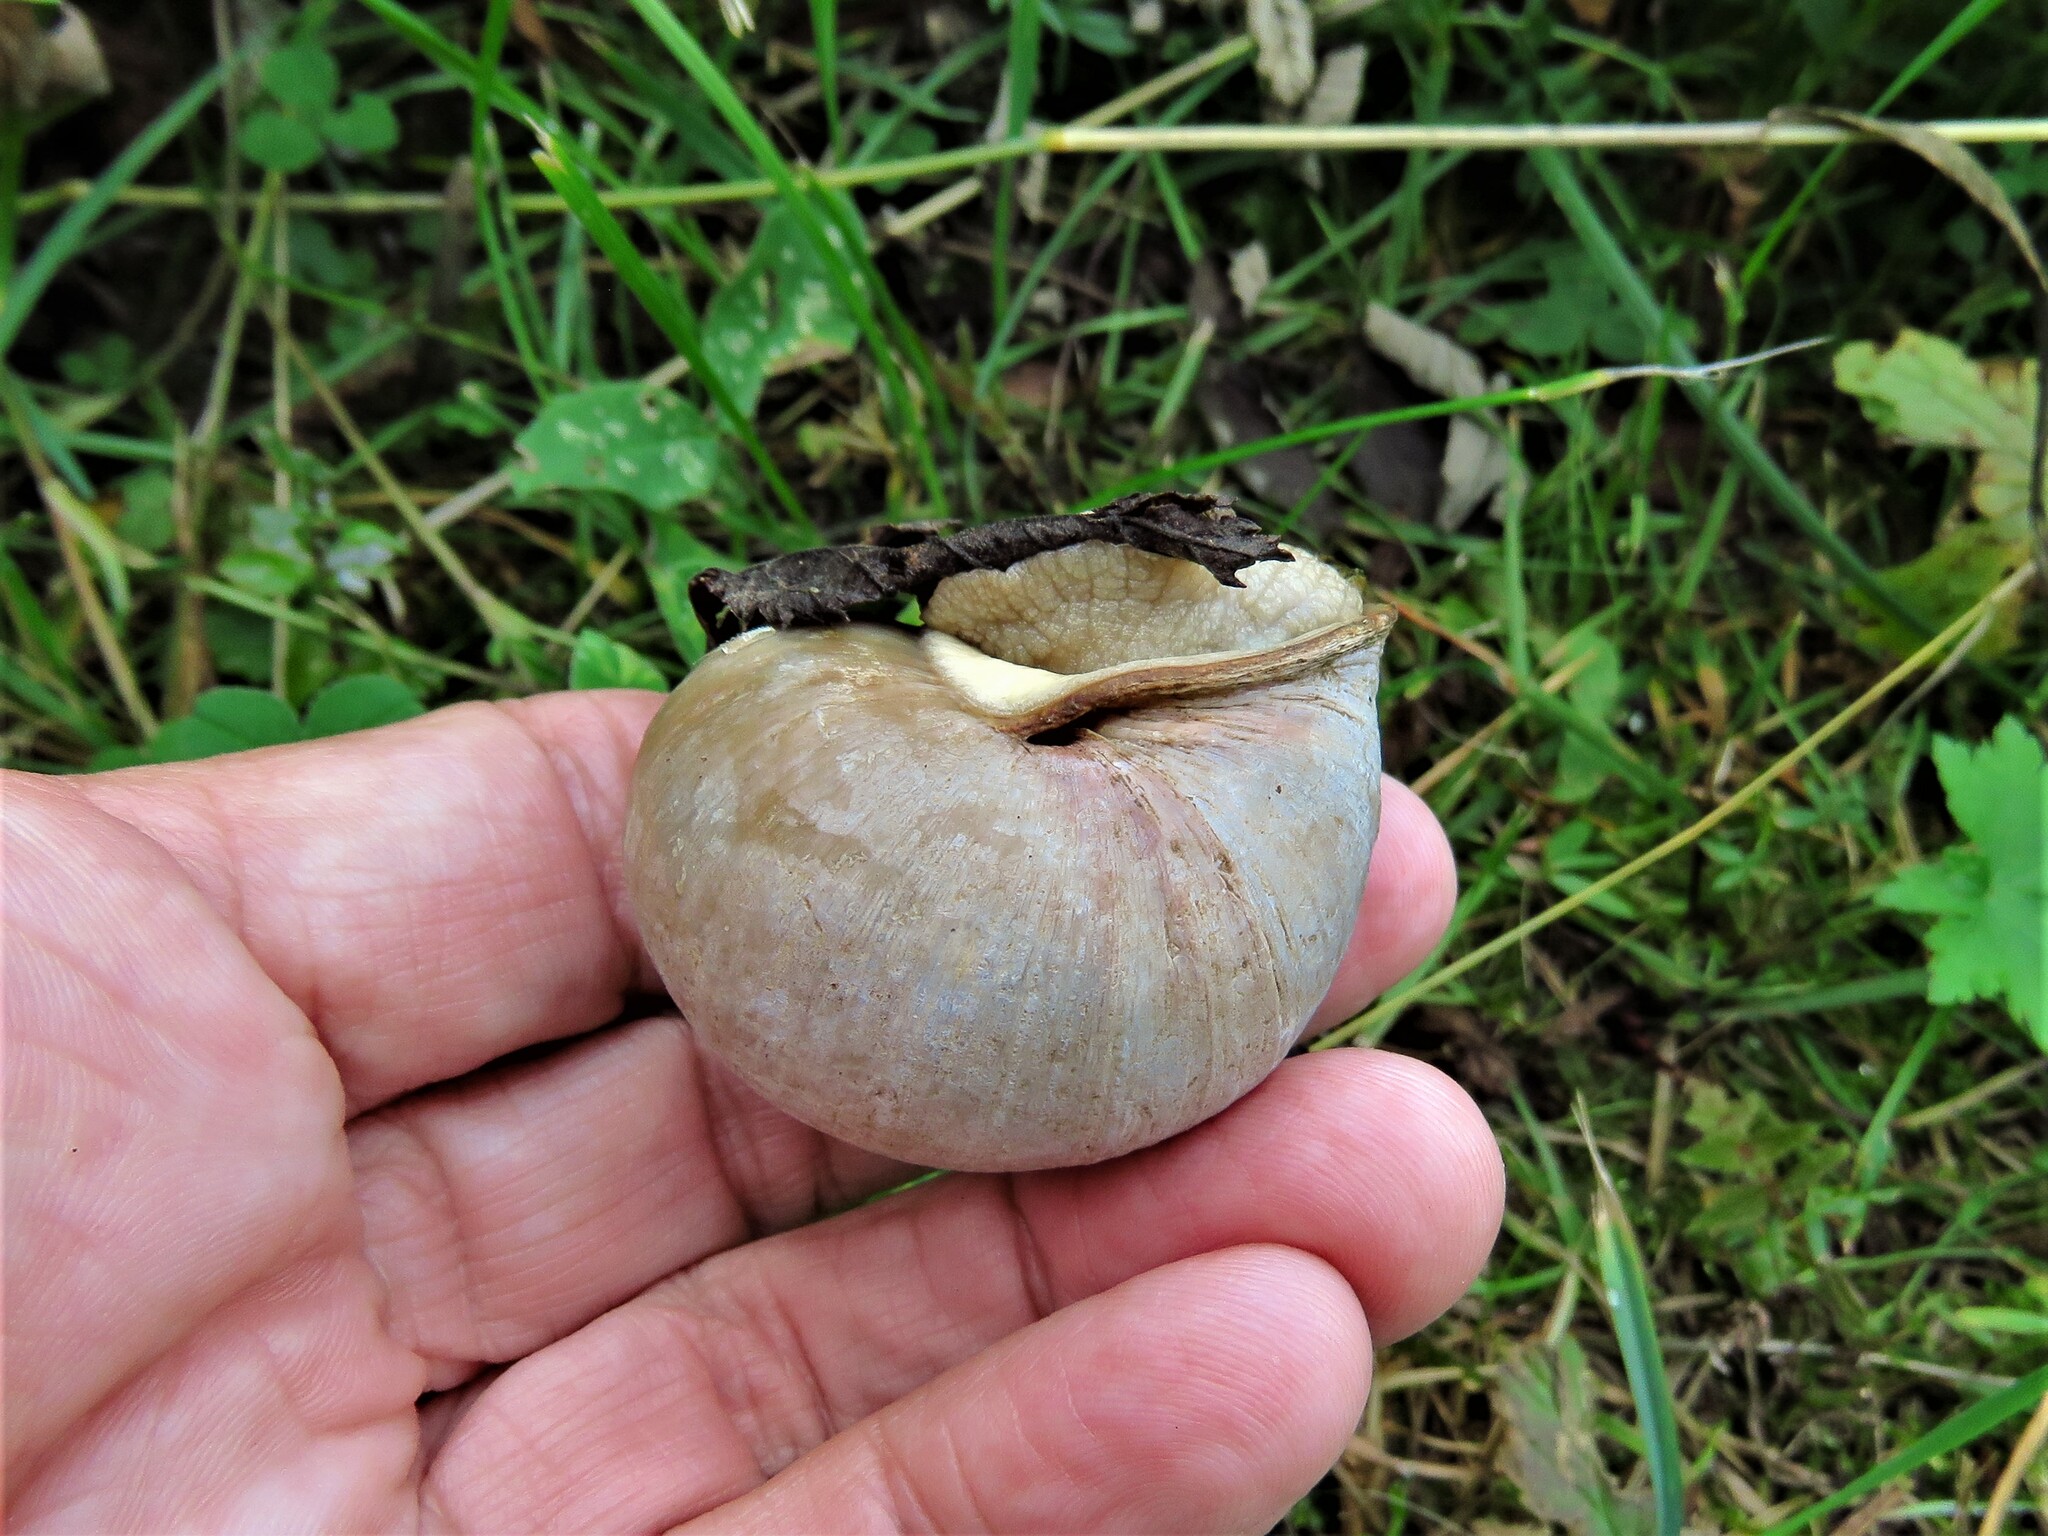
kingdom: Animalia
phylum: Mollusca
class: Gastropoda
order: Stylommatophora
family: Helicidae
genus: Helix
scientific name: Helix pomatia
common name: Roman snail
